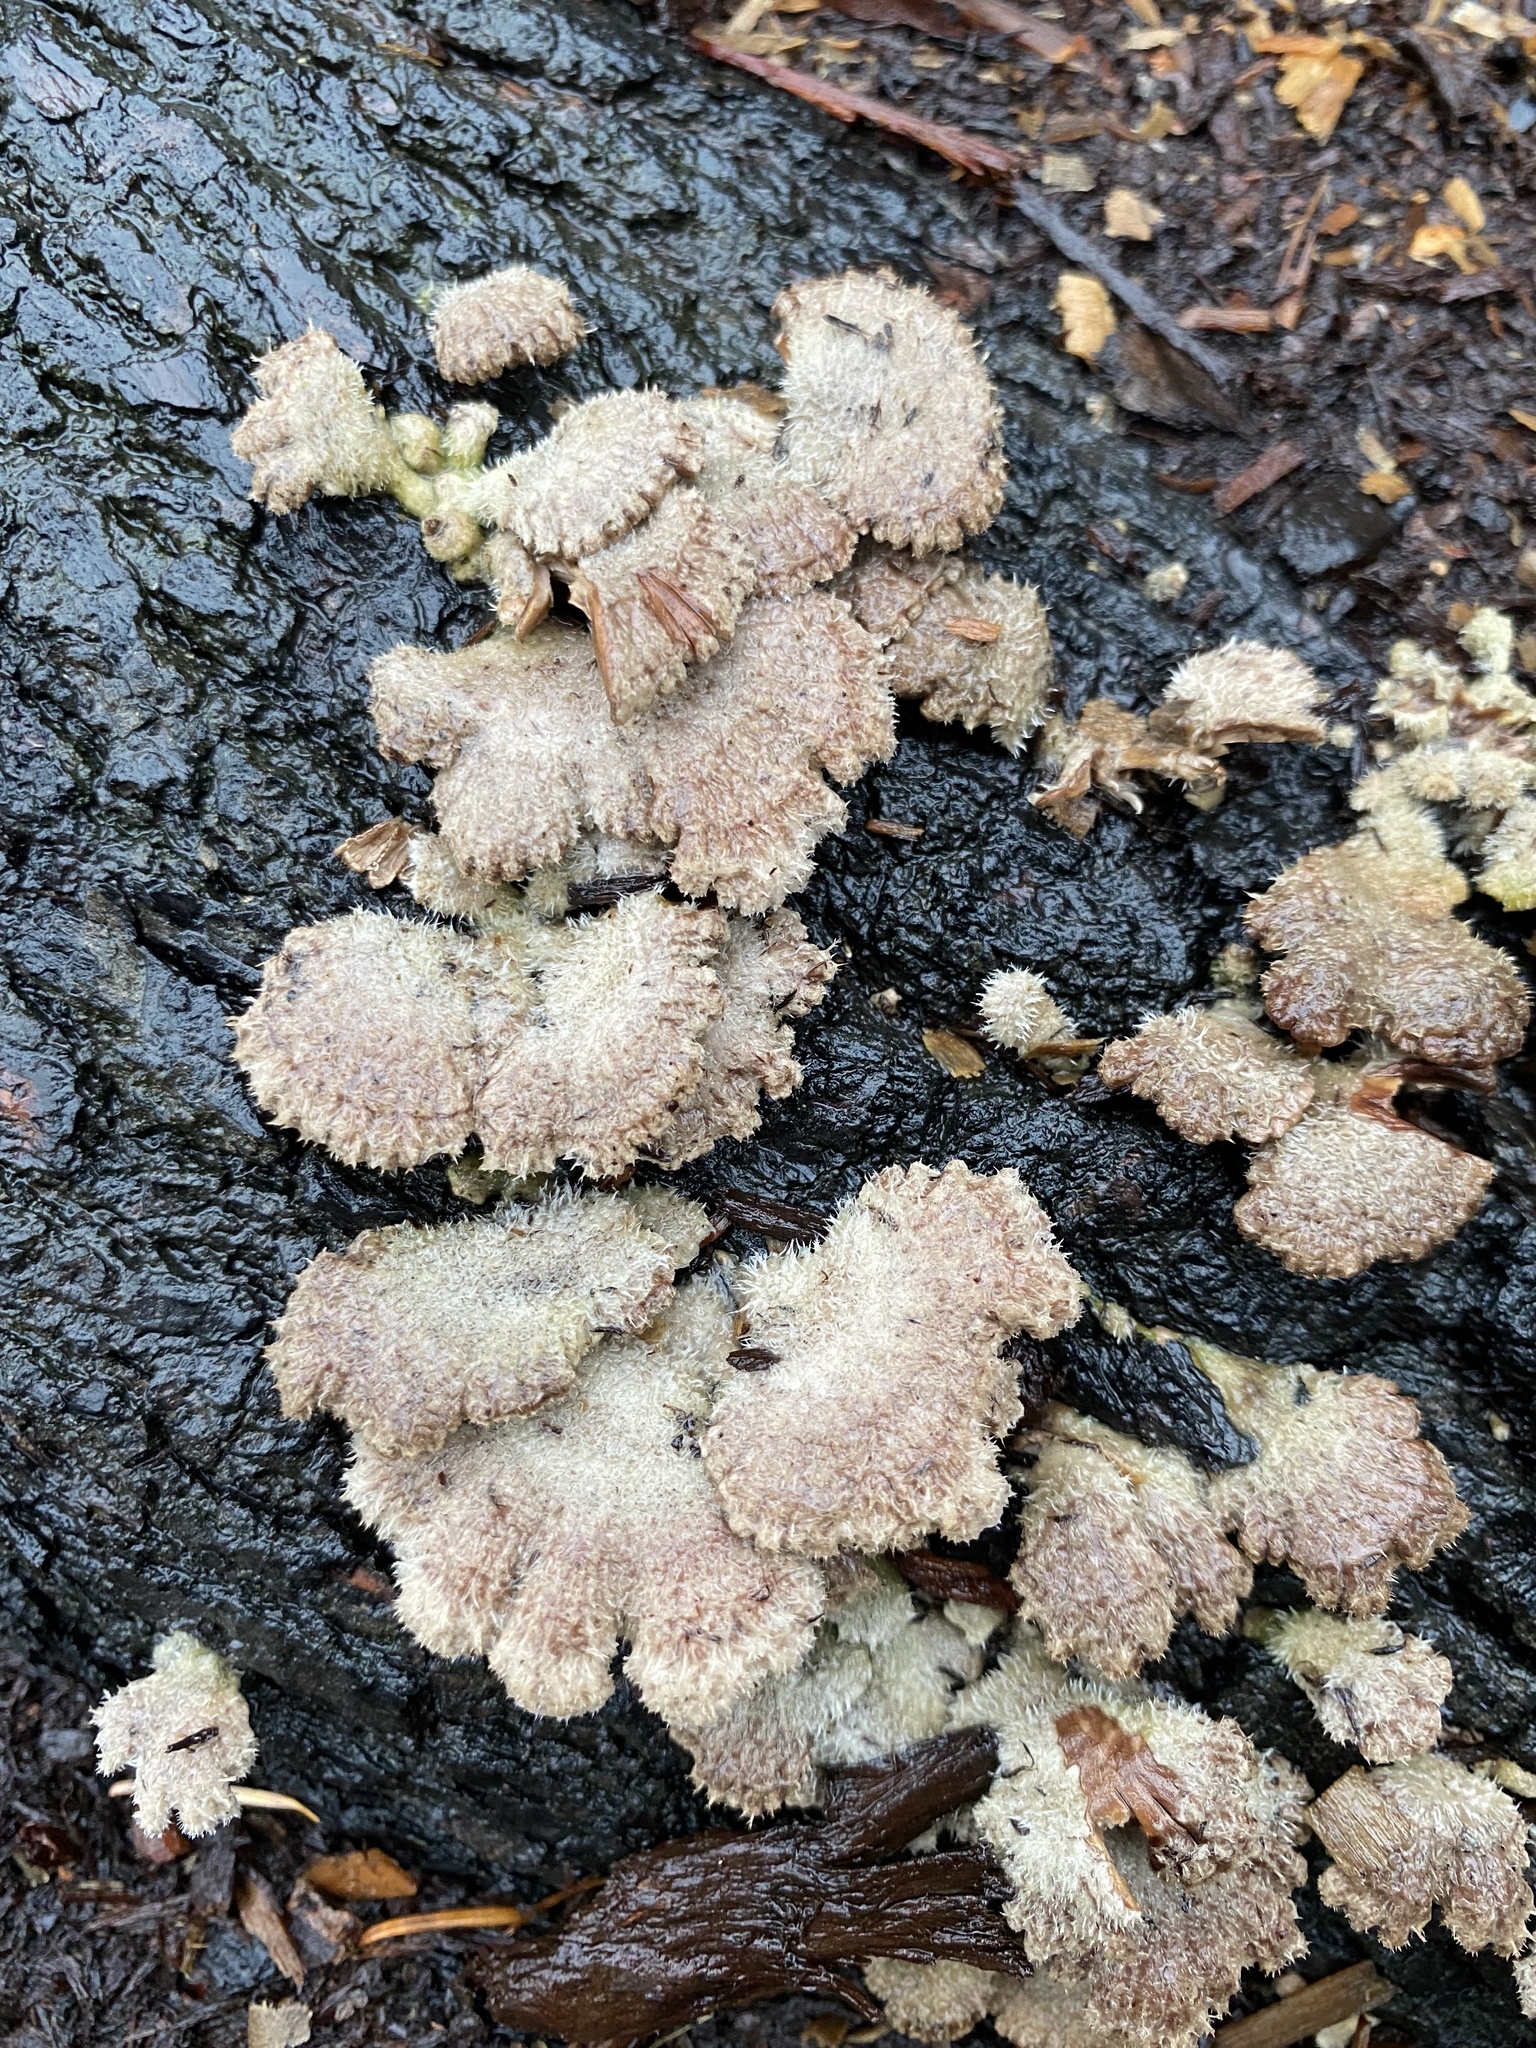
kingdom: Fungi
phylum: Basidiomycota
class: Agaricomycetes
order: Agaricales
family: Schizophyllaceae
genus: Schizophyllum
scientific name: Schizophyllum commune
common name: Common porecrust
